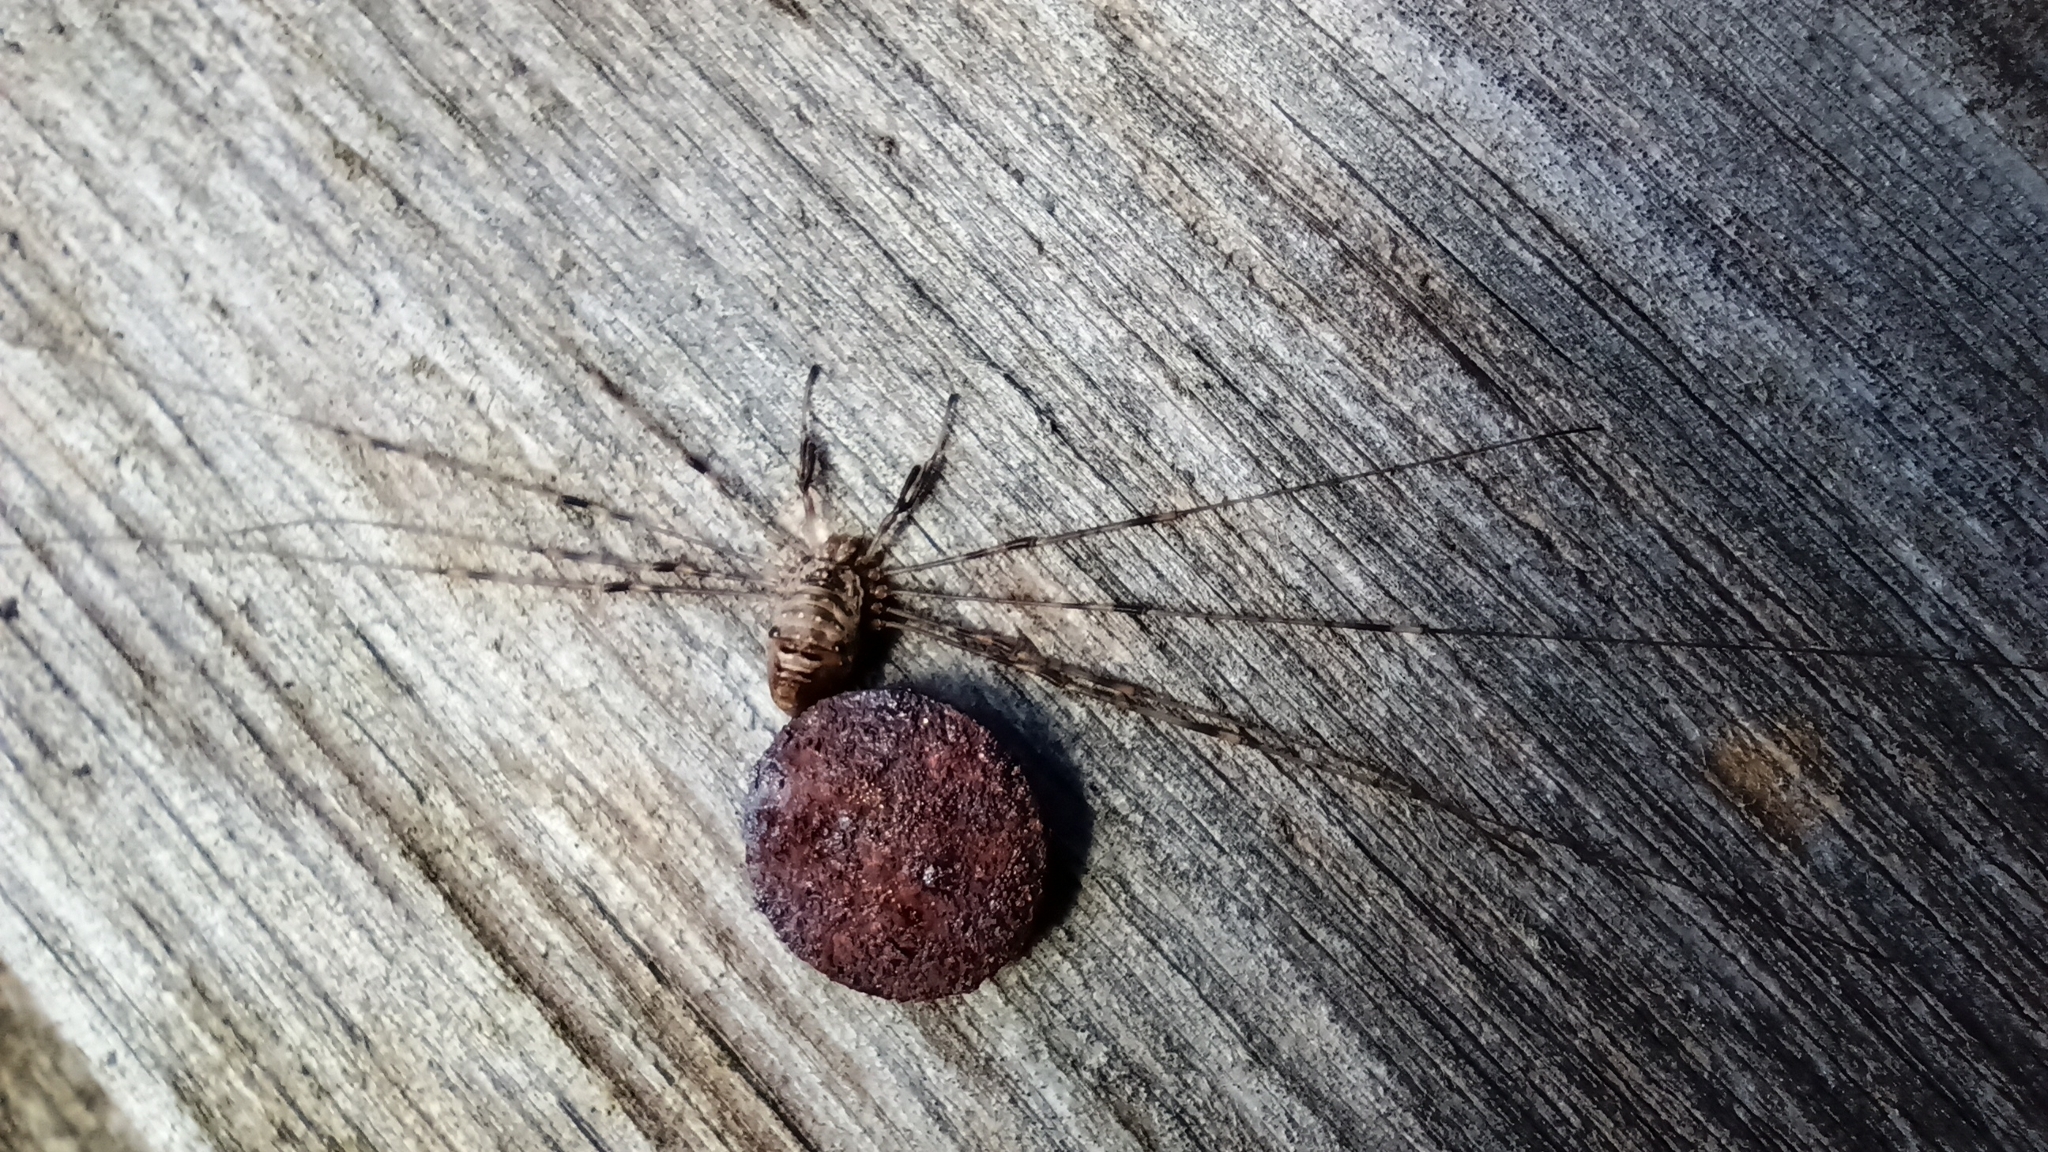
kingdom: Animalia
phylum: Arthropoda
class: Arachnida
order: Opiliones
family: Phalangiidae
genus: Dicranopalpus
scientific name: Dicranopalpus ramosus
